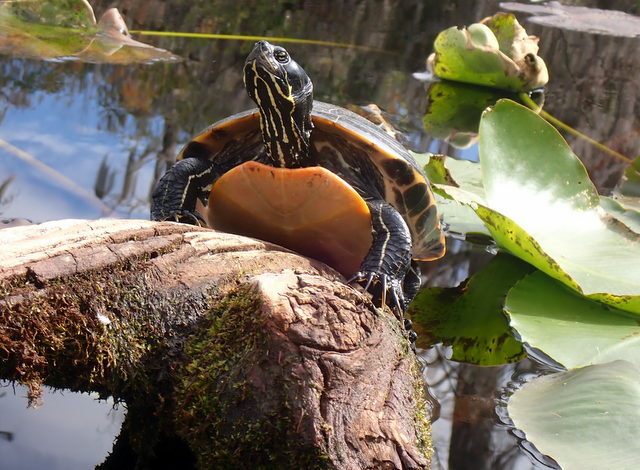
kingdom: Animalia
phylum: Chordata
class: Testudines
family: Emydidae
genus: Pseudemys
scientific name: Pseudemys concinna
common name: Eastern river cooter
